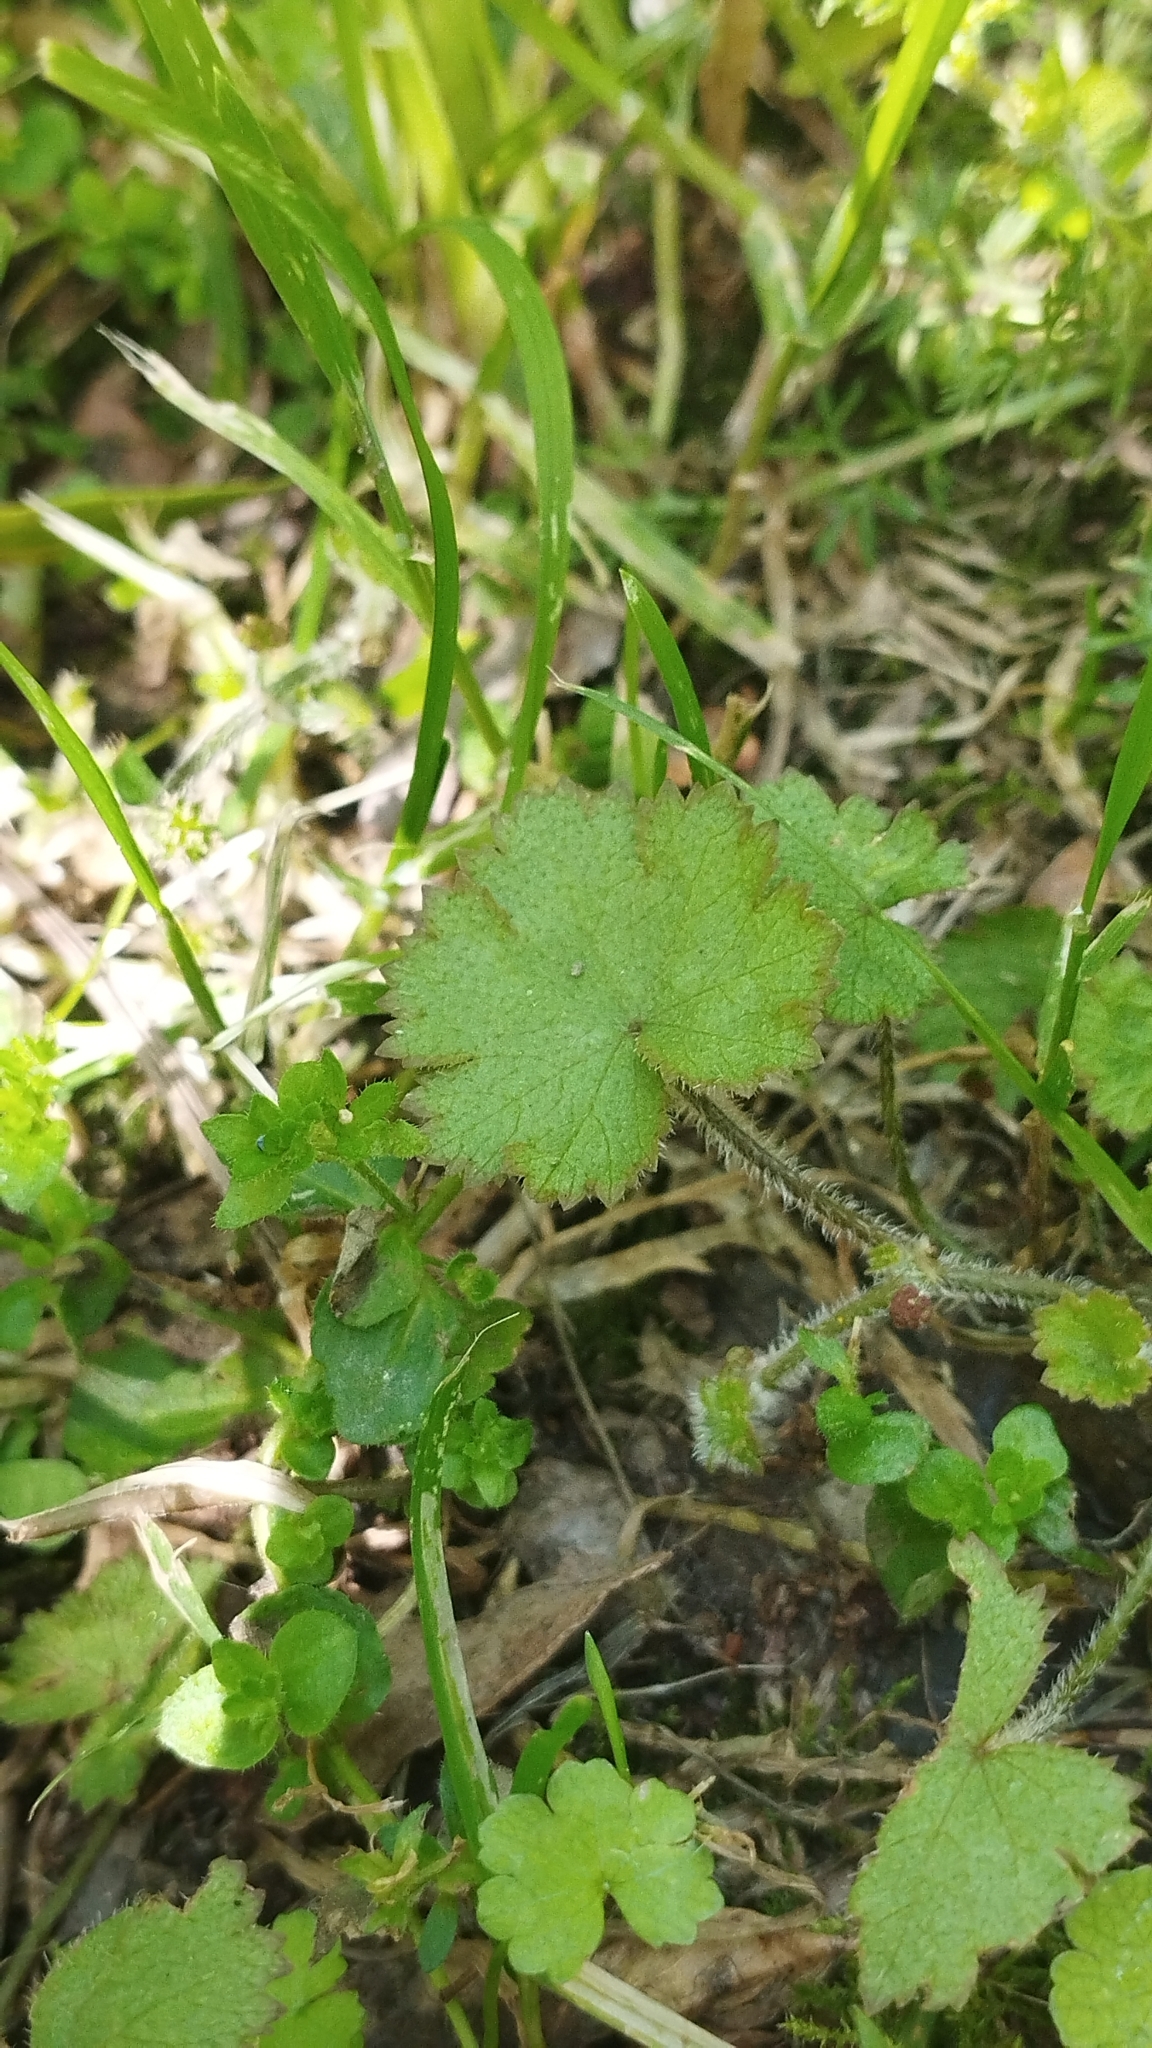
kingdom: Plantae
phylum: Tracheophyta
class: Magnoliopsida
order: Apiales
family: Araliaceae
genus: Hydrocotyle
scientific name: Hydrocotyle moschata
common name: Hairy pennywort
